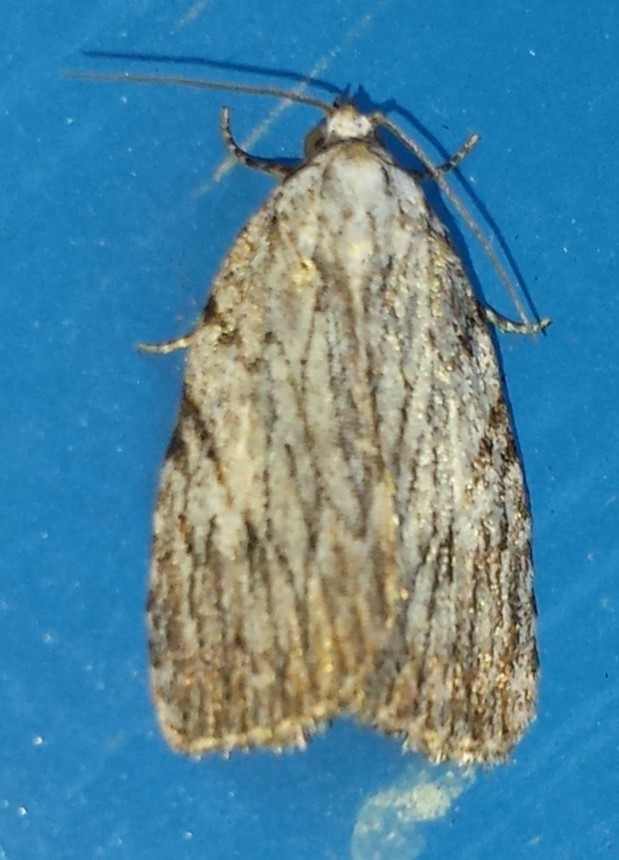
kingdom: Animalia
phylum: Arthropoda
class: Insecta
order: Lepidoptera
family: Noctuidae
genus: Balsa
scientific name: Balsa tristrigella
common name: Three-lined balsa moth
